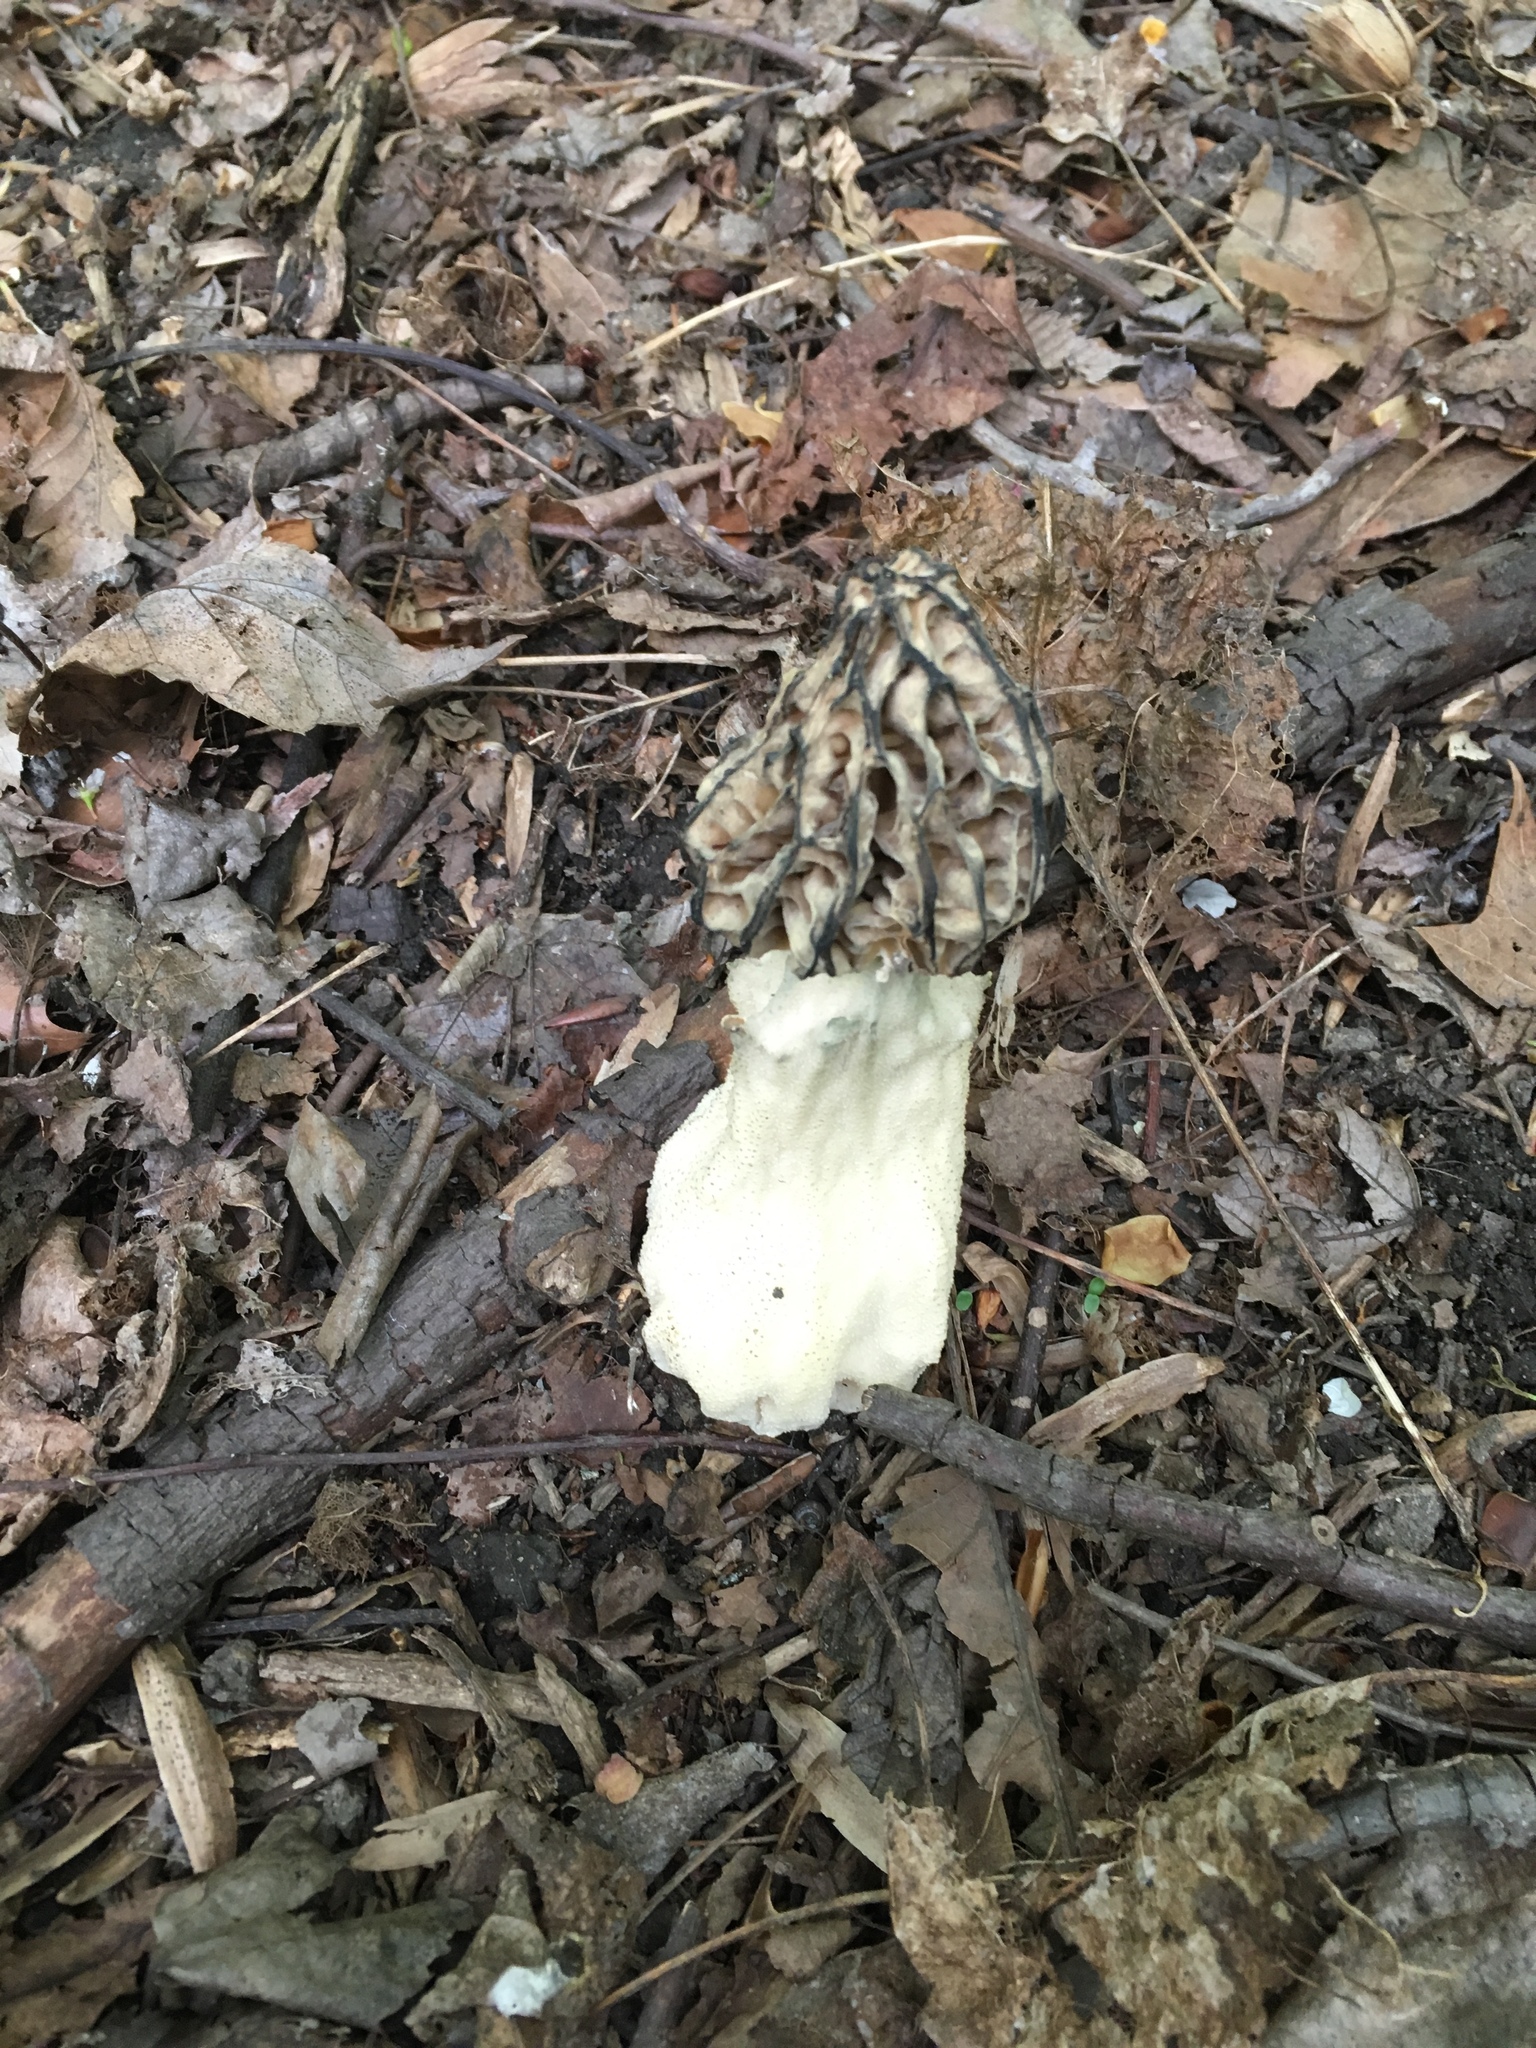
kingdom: Fungi
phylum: Ascomycota
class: Pezizomycetes
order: Pezizales
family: Morchellaceae
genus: Morchella
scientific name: Morchella angusticeps
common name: Black morel
